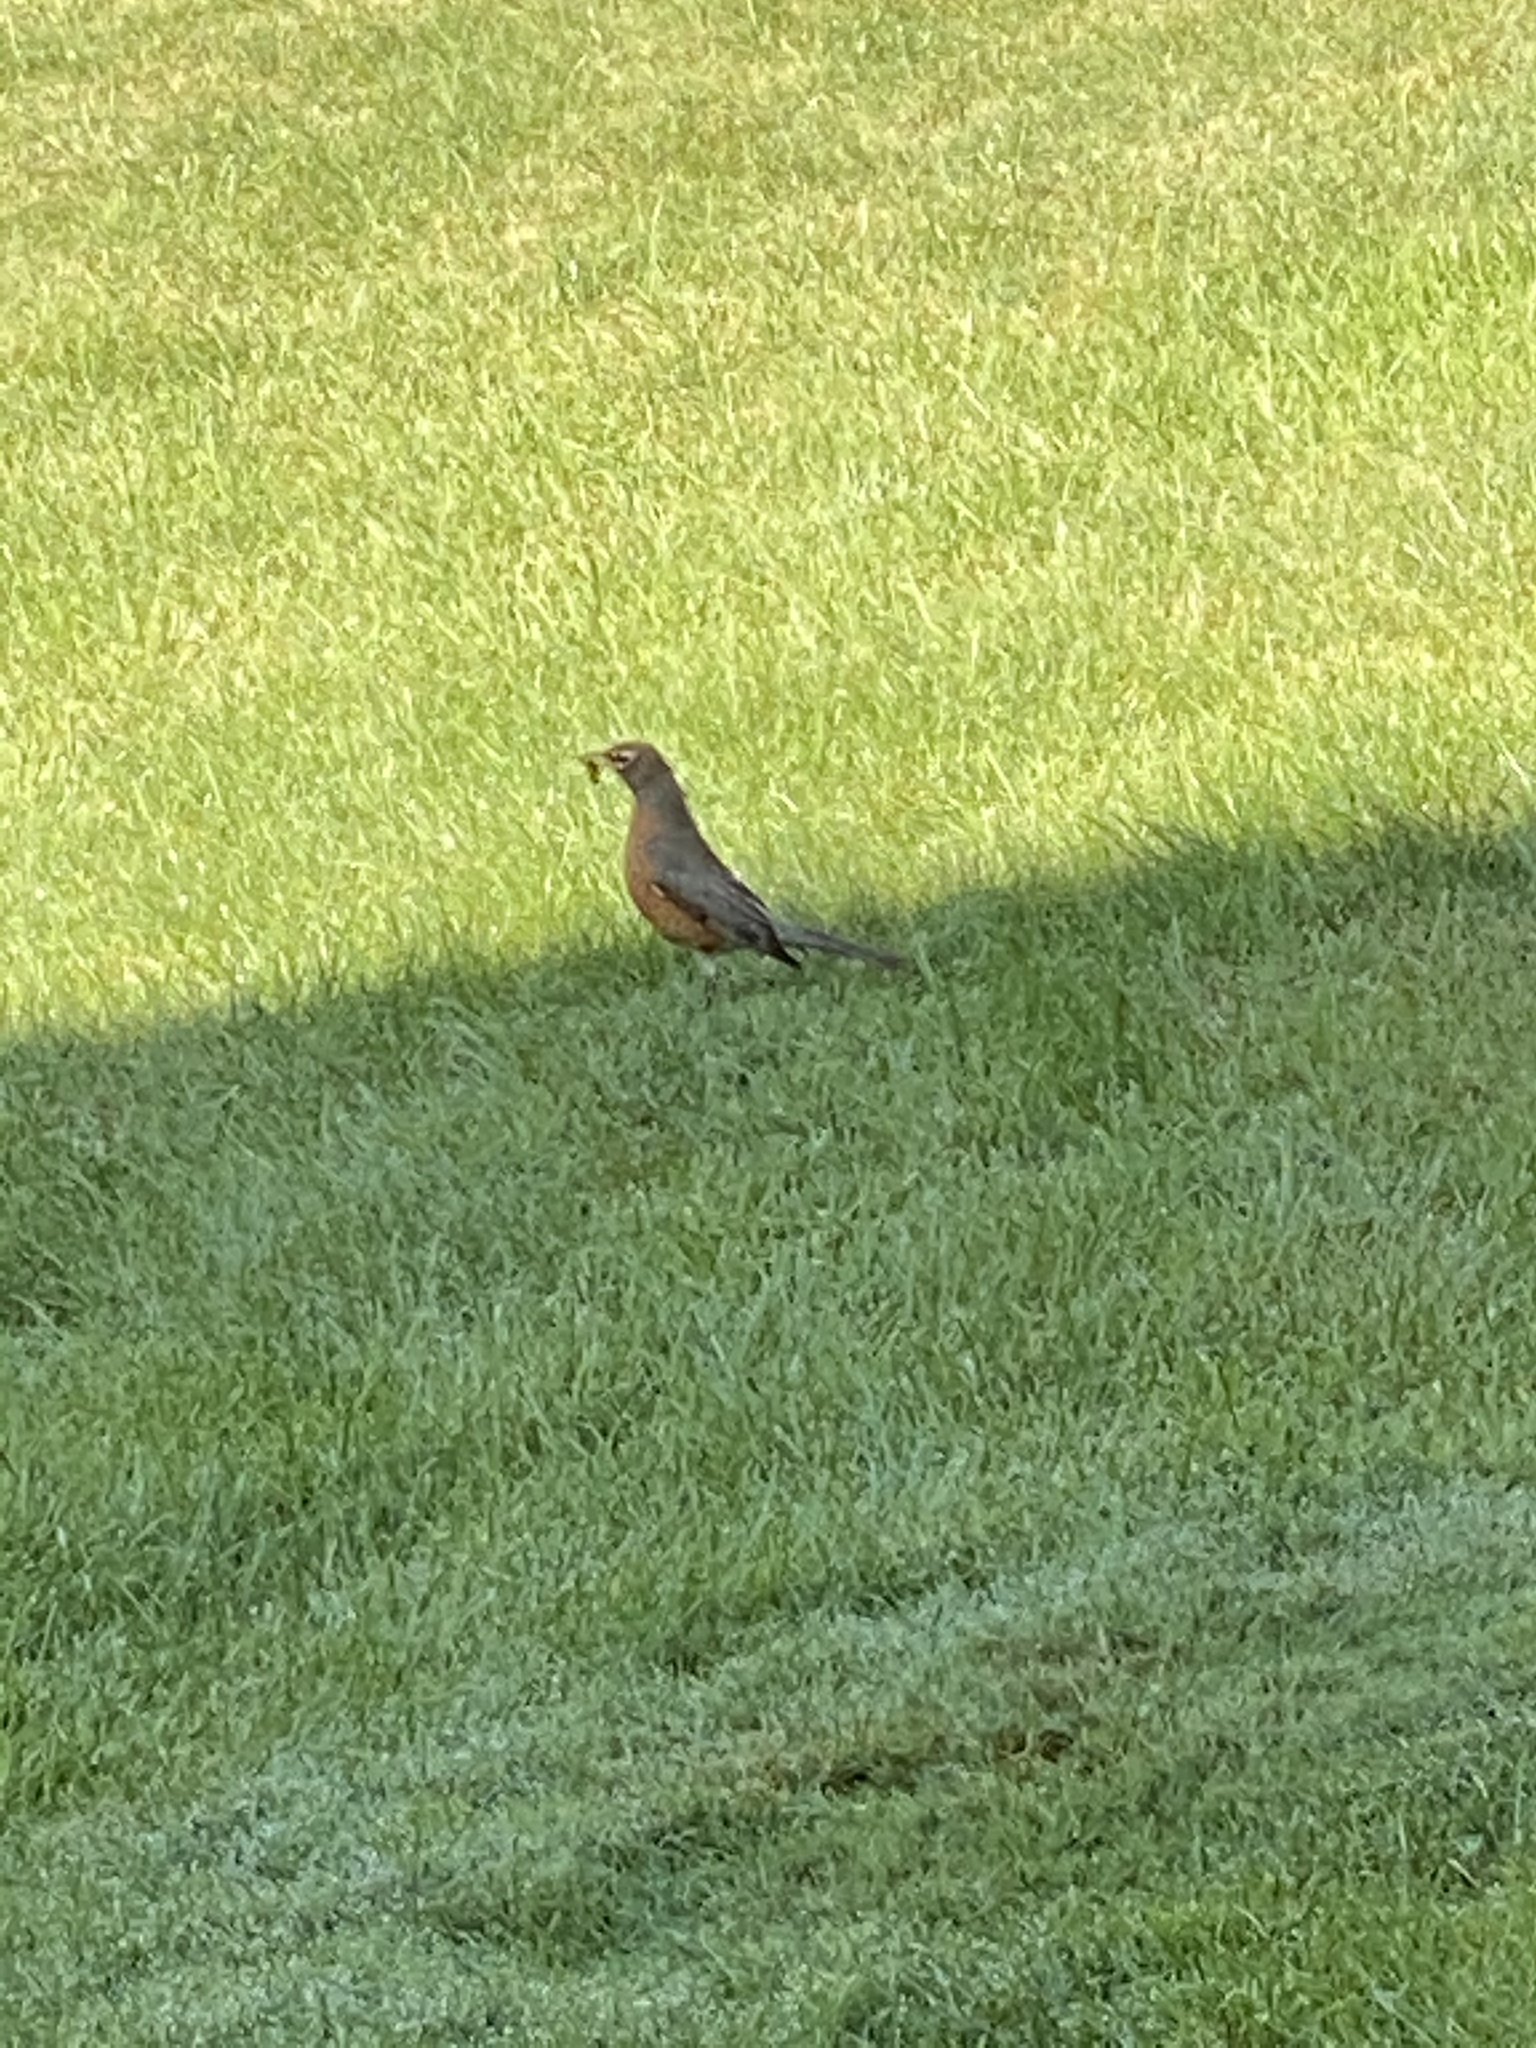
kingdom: Animalia
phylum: Chordata
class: Aves
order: Passeriformes
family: Turdidae
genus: Turdus
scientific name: Turdus migratorius
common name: American robin
